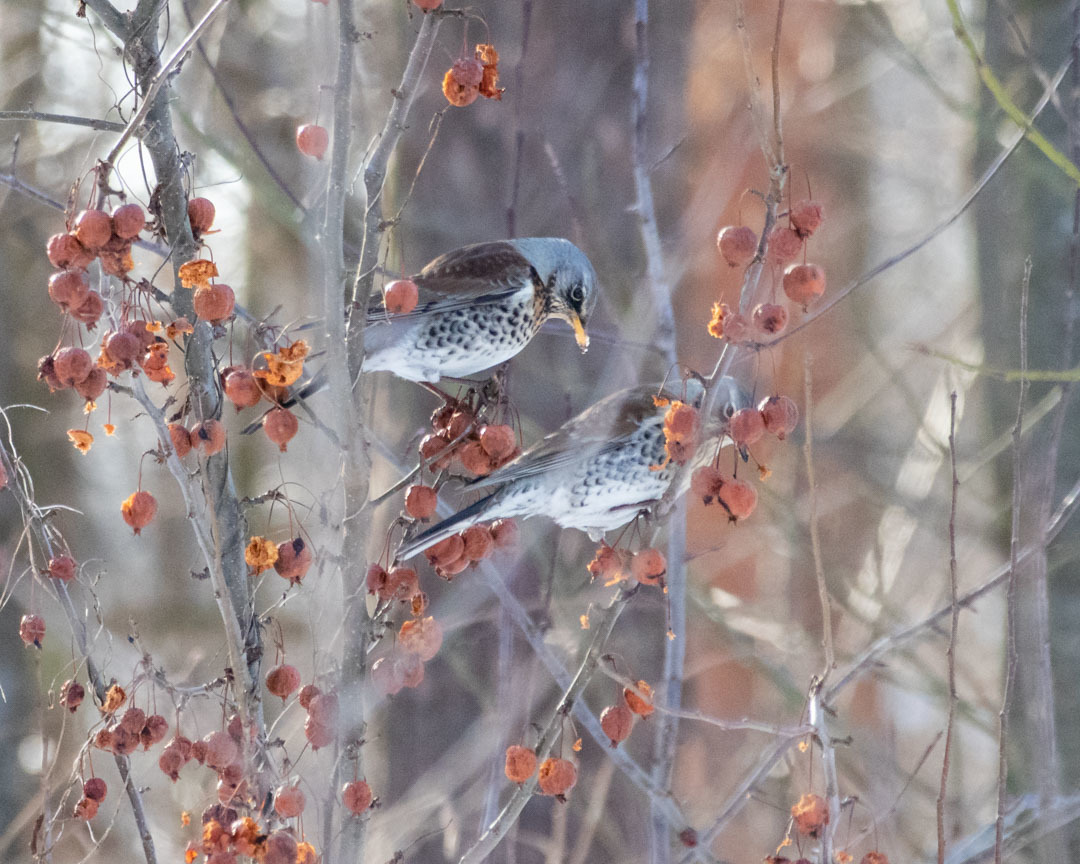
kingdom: Animalia
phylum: Chordata
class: Aves
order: Passeriformes
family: Turdidae
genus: Turdus
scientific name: Turdus pilaris
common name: Fieldfare
